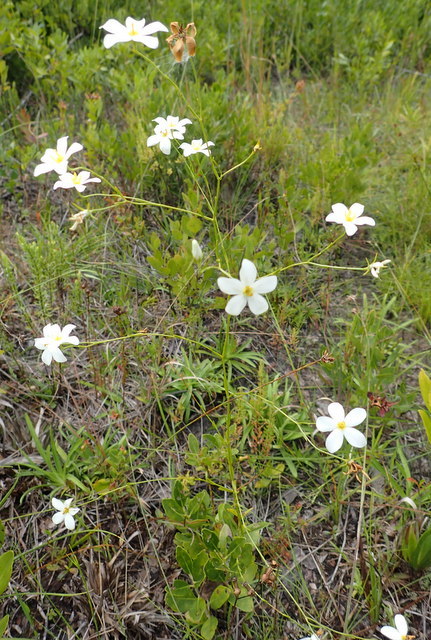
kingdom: Plantae
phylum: Tracheophyta
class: Magnoliopsida
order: Gentianales
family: Gentianaceae
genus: Sabatia
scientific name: Sabatia brevifolia
